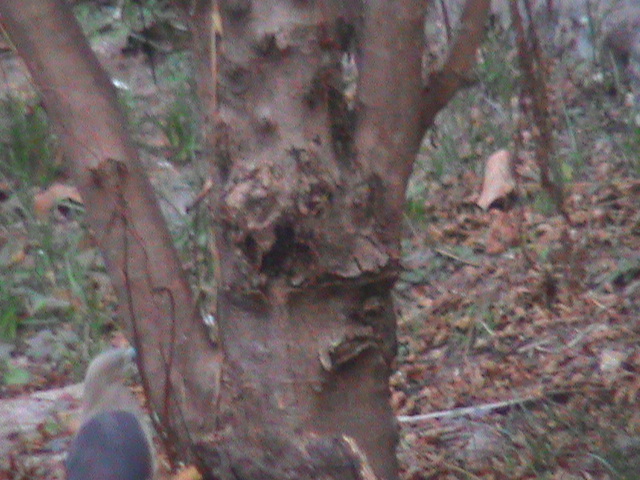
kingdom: Animalia
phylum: Chordata
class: Aves
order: Pelecaniformes
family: Ardeidae
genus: Ardeola
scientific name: Ardeola grayii
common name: Indian pond heron
